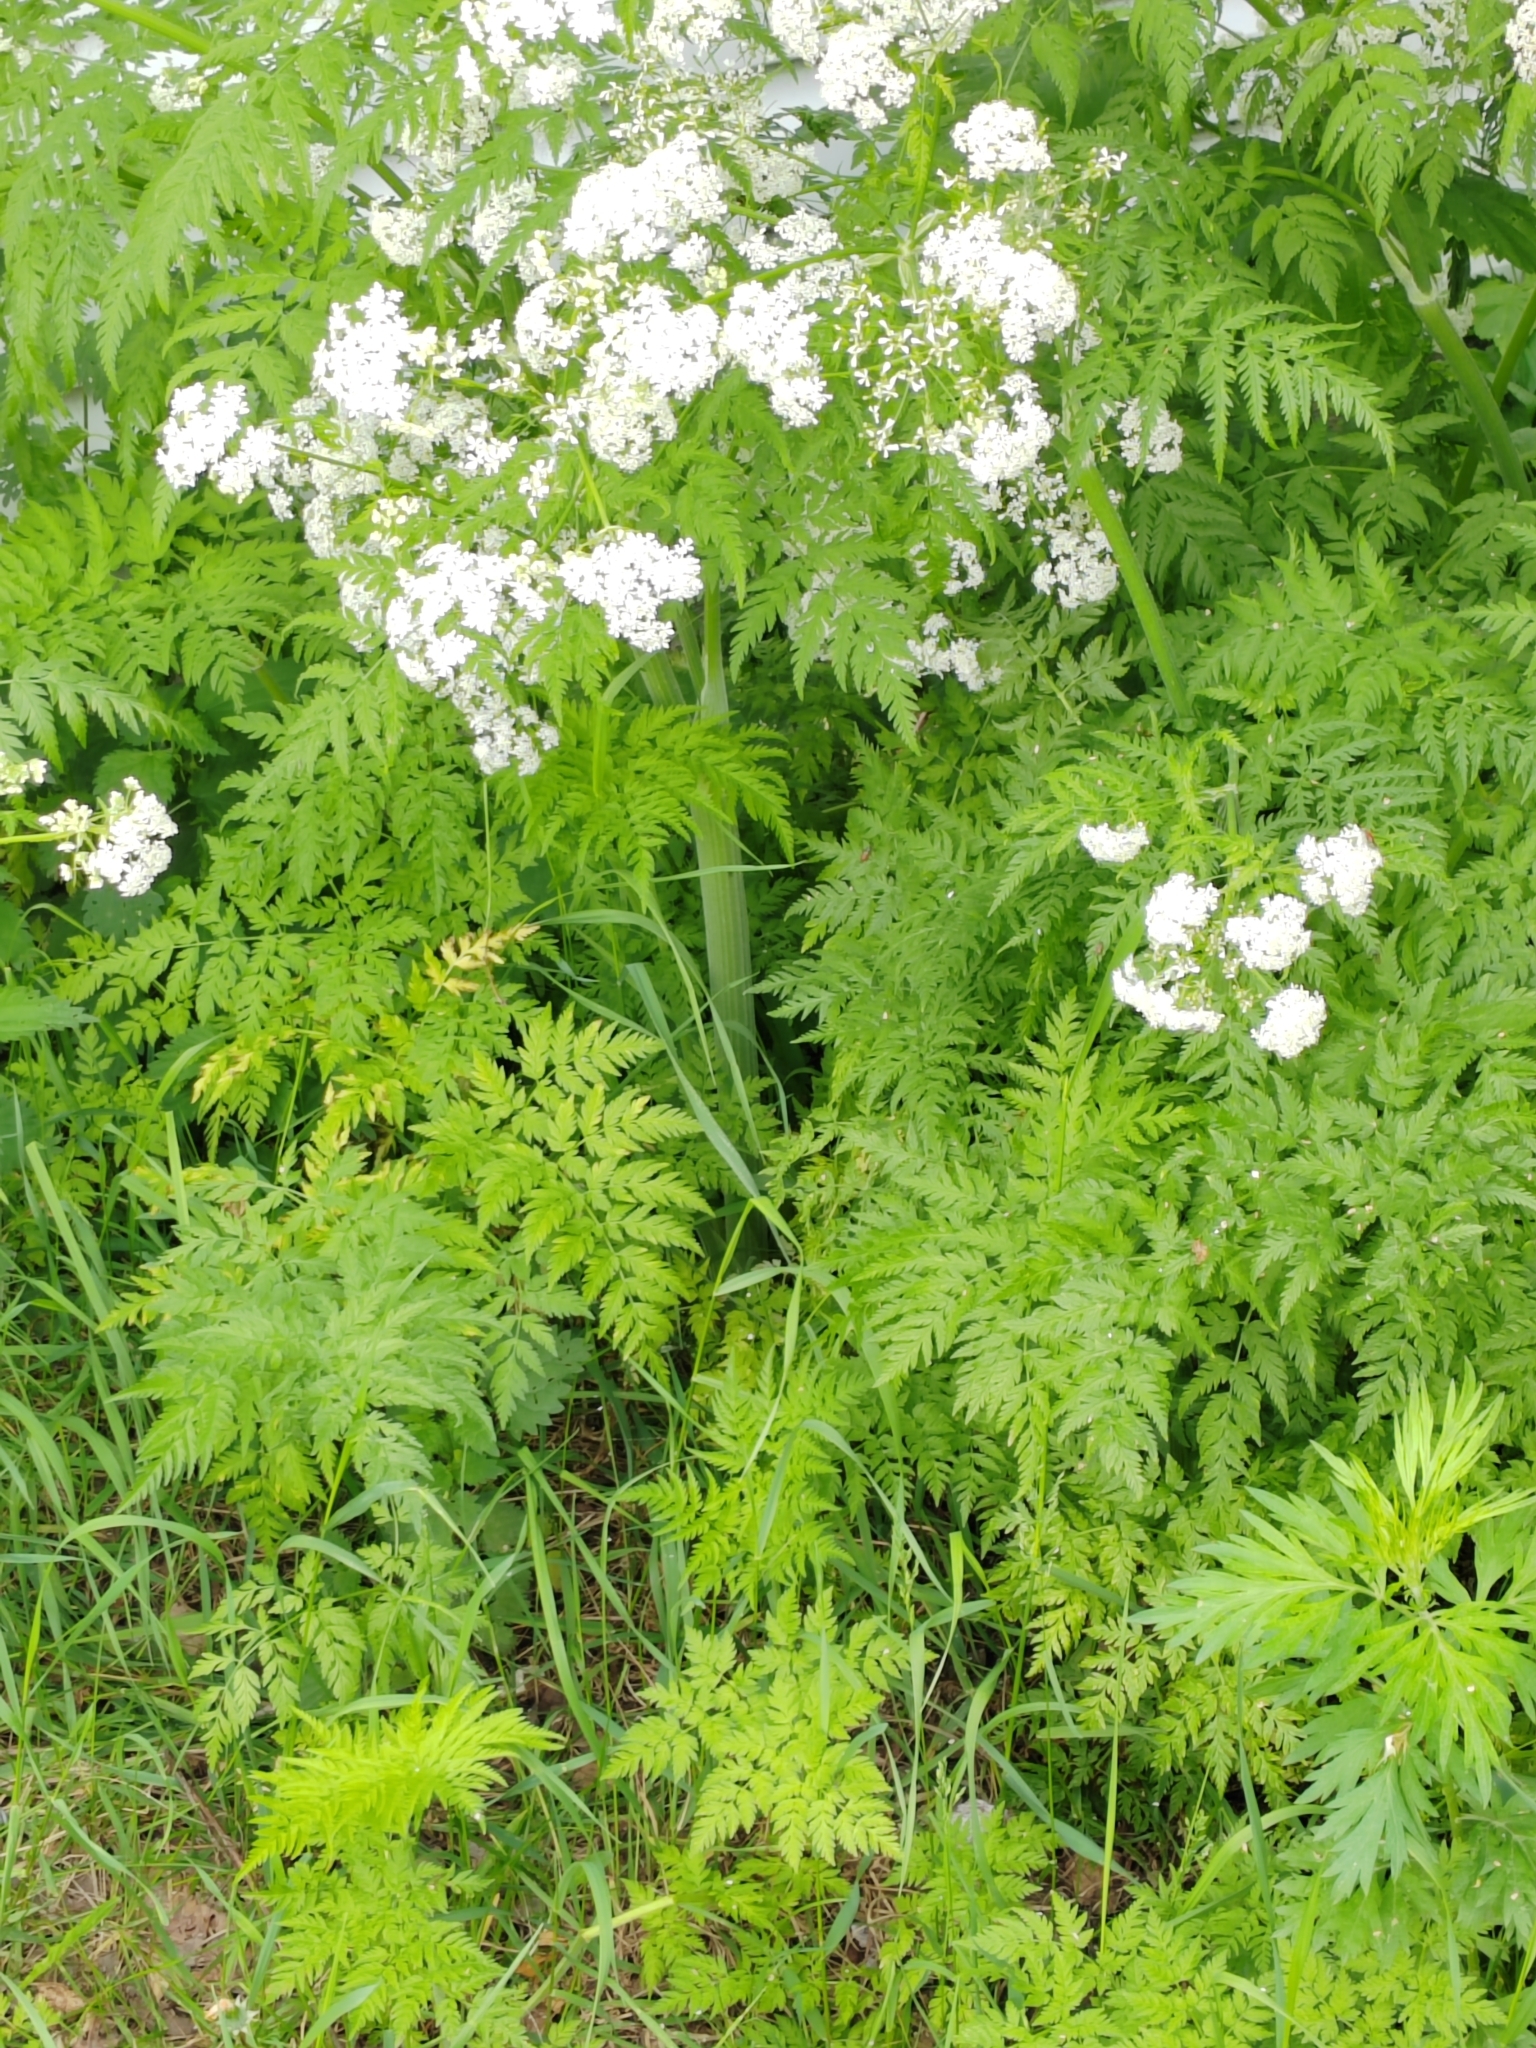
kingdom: Plantae
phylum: Tracheophyta
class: Magnoliopsida
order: Apiales
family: Apiaceae
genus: Anthriscus
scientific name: Anthriscus sylvestris
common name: Cow parsley
